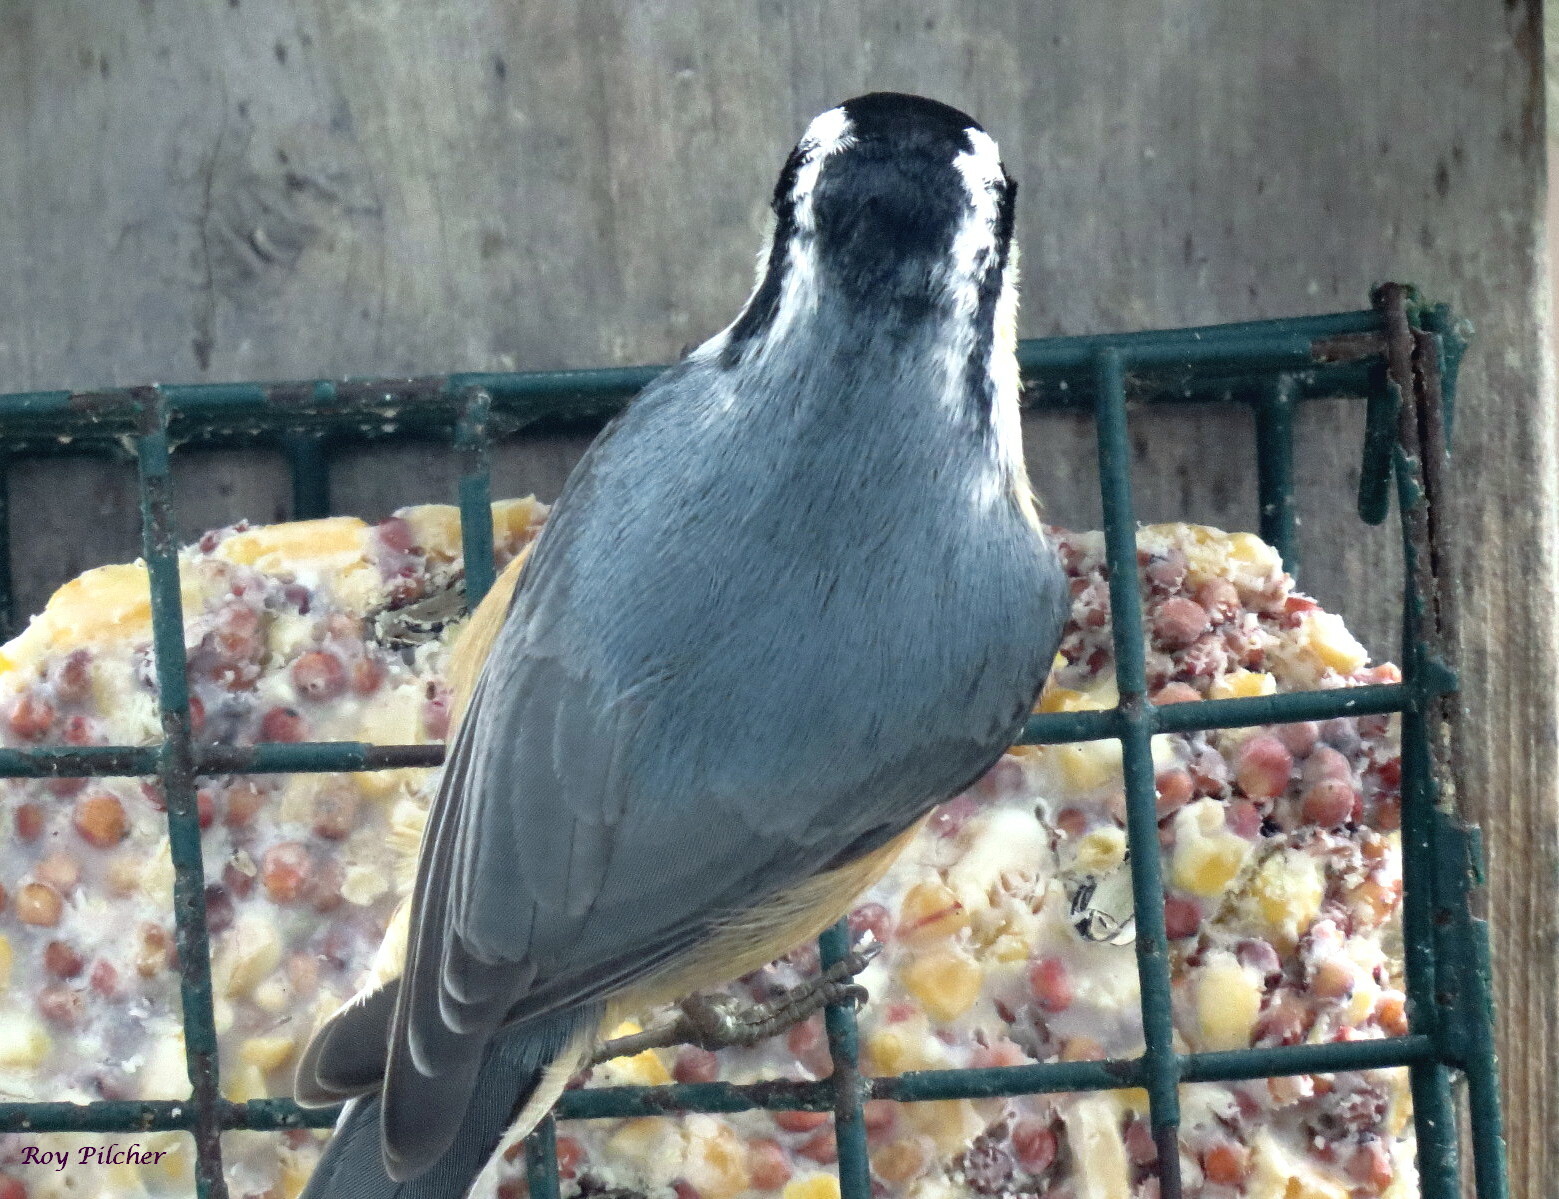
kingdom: Animalia
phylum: Chordata
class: Aves
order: Passeriformes
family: Sittidae
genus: Sitta
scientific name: Sitta canadensis
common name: Red-breasted nuthatch
